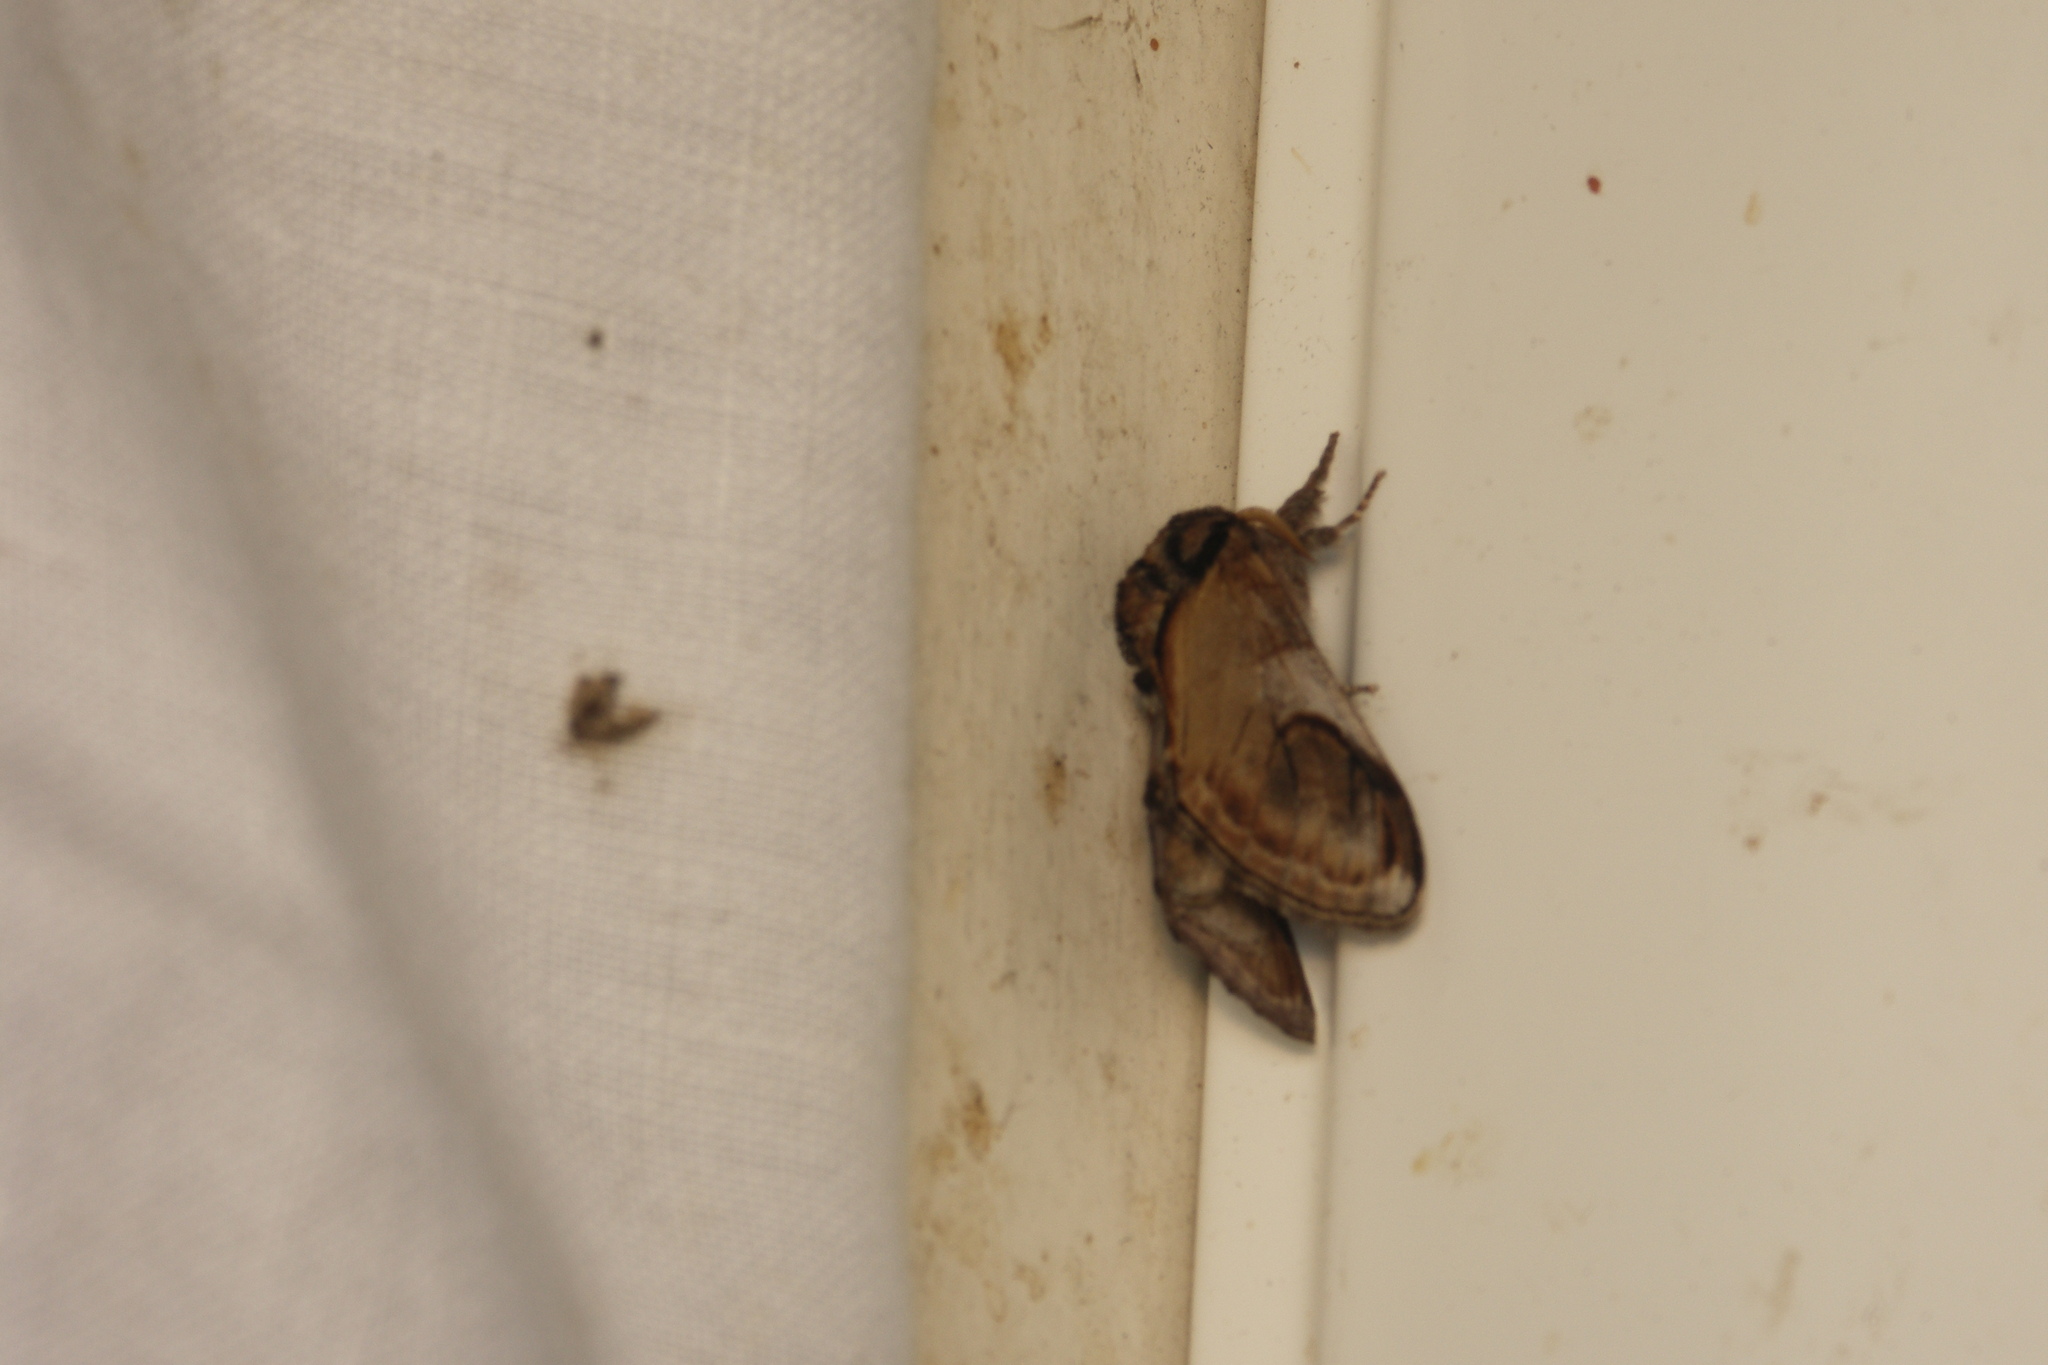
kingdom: Animalia
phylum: Arthropoda
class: Insecta
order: Lepidoptera
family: Notodontidae
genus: Notodonta
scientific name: Notodonta ziczac
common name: Pebble prominent
